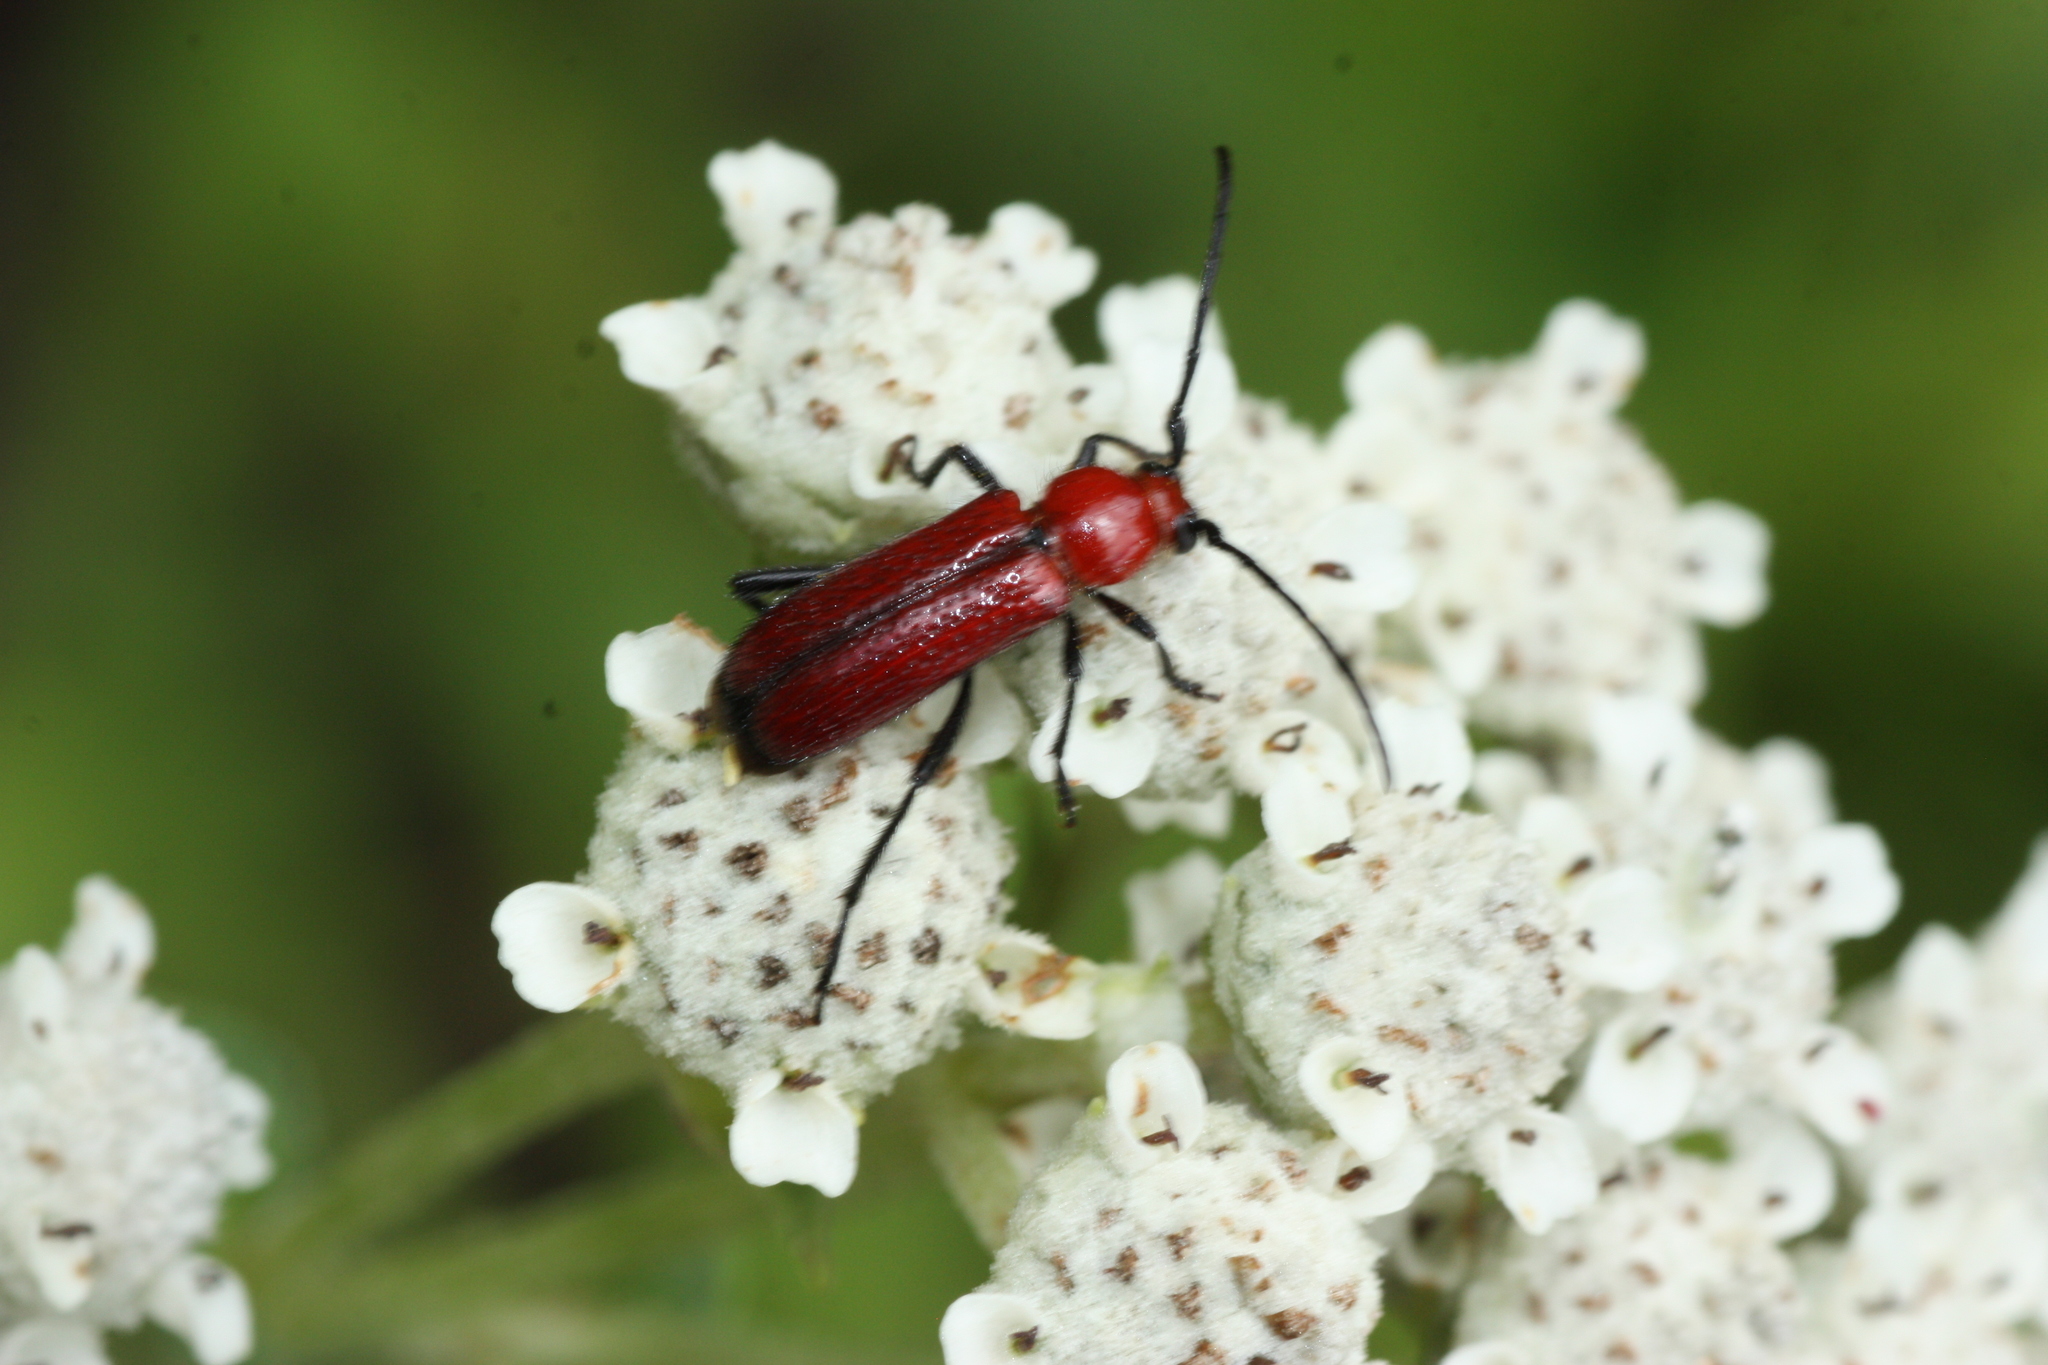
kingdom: Animalia
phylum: Arthropoda
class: Insecta
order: Coleoptera
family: Cerambycidae
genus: Batyle
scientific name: Batyle suturalis
